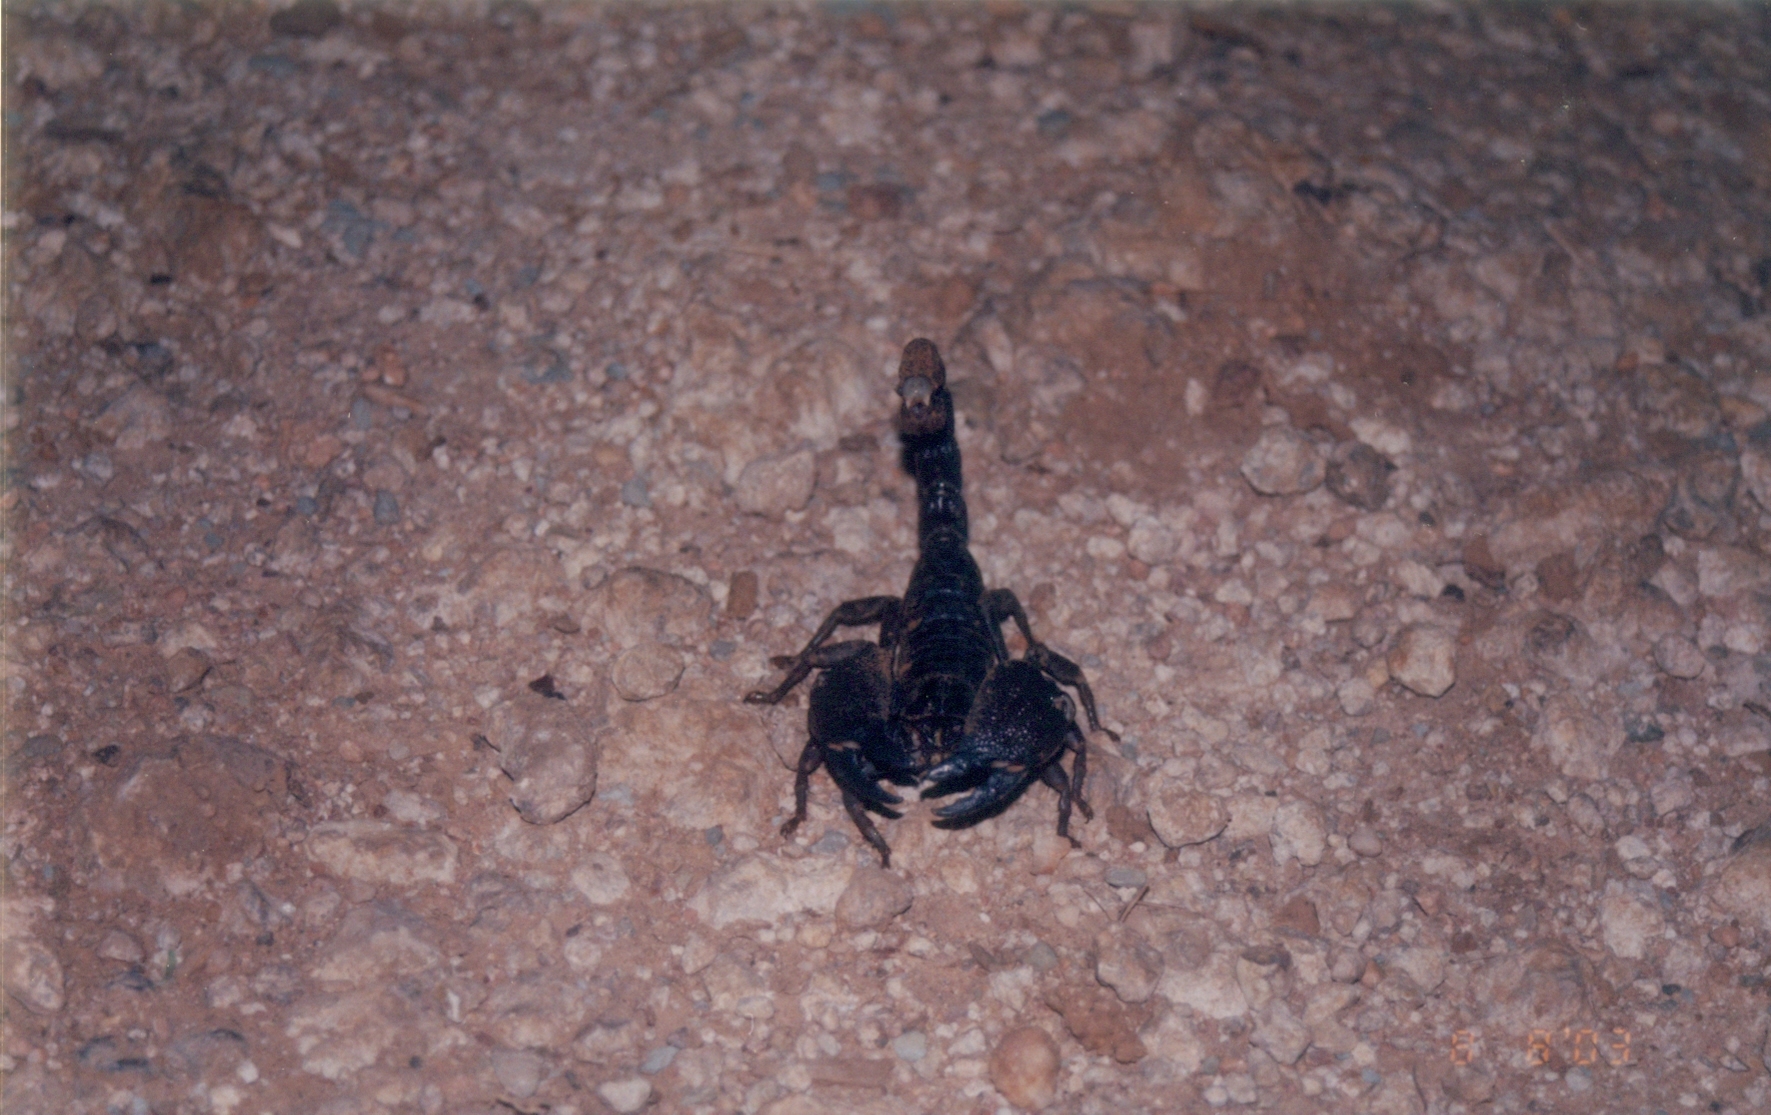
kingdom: Animalia
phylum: Arthropoda
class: Arachnida
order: Scorpiones
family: Scorpionidae
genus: Gigantometrus
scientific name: Gigantometrus swammerdami
